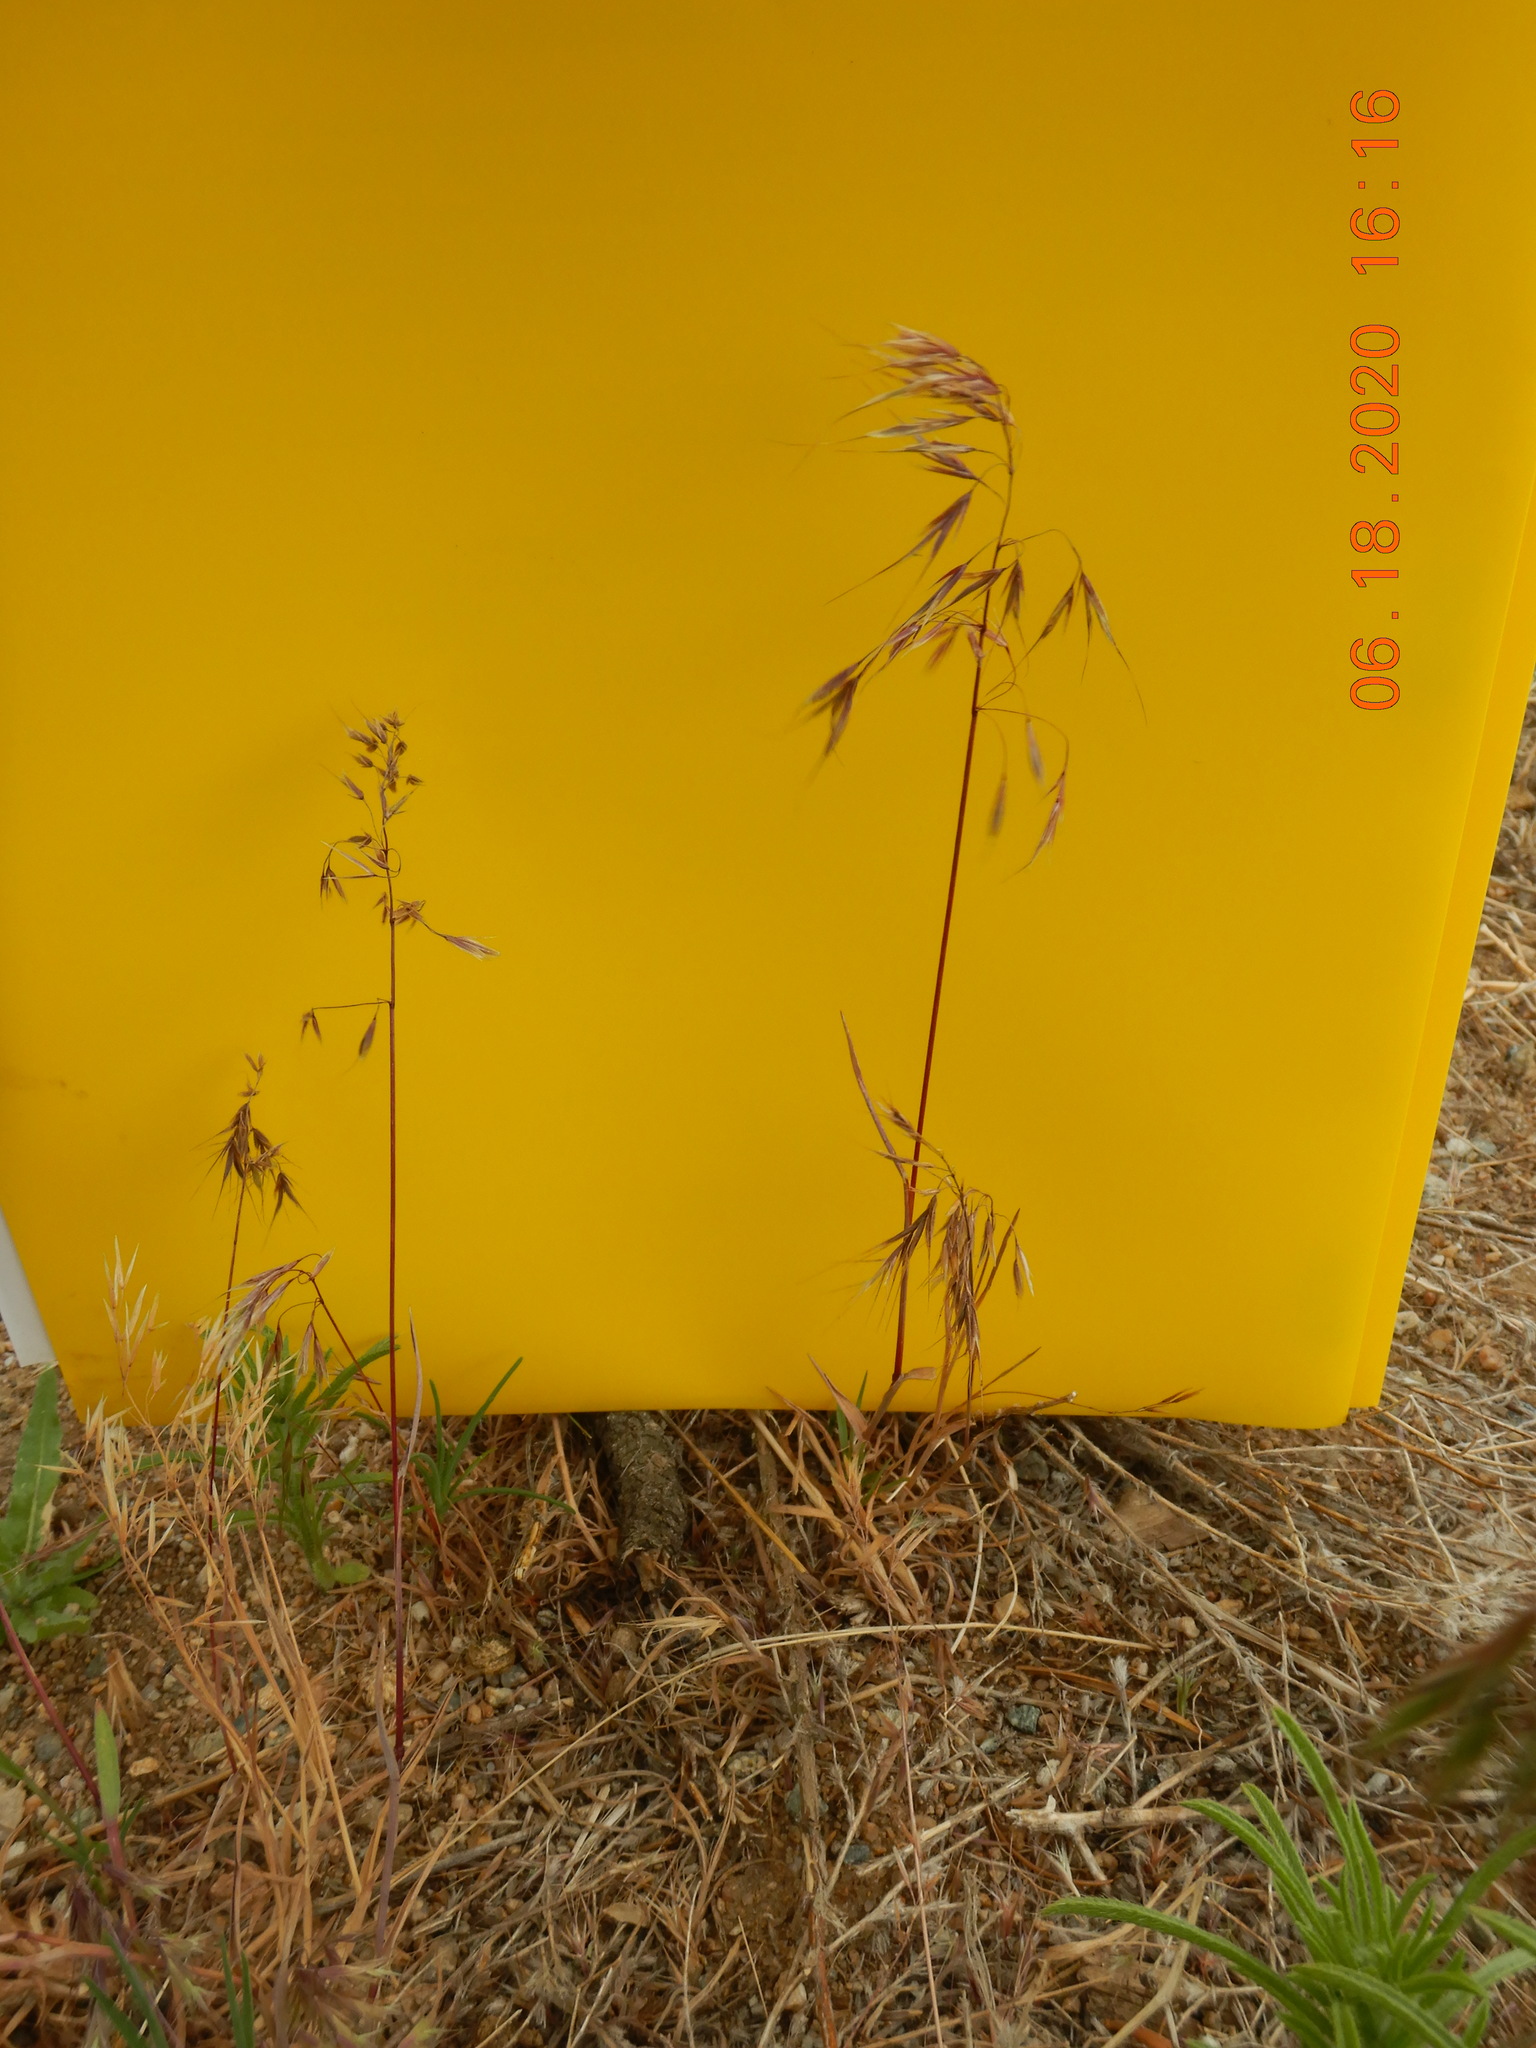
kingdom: Plantae
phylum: Tracheophyta
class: Liliopsida
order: Poales
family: Poaceae
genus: Bromus
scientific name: Bromus tectorum
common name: Cheatgrass
